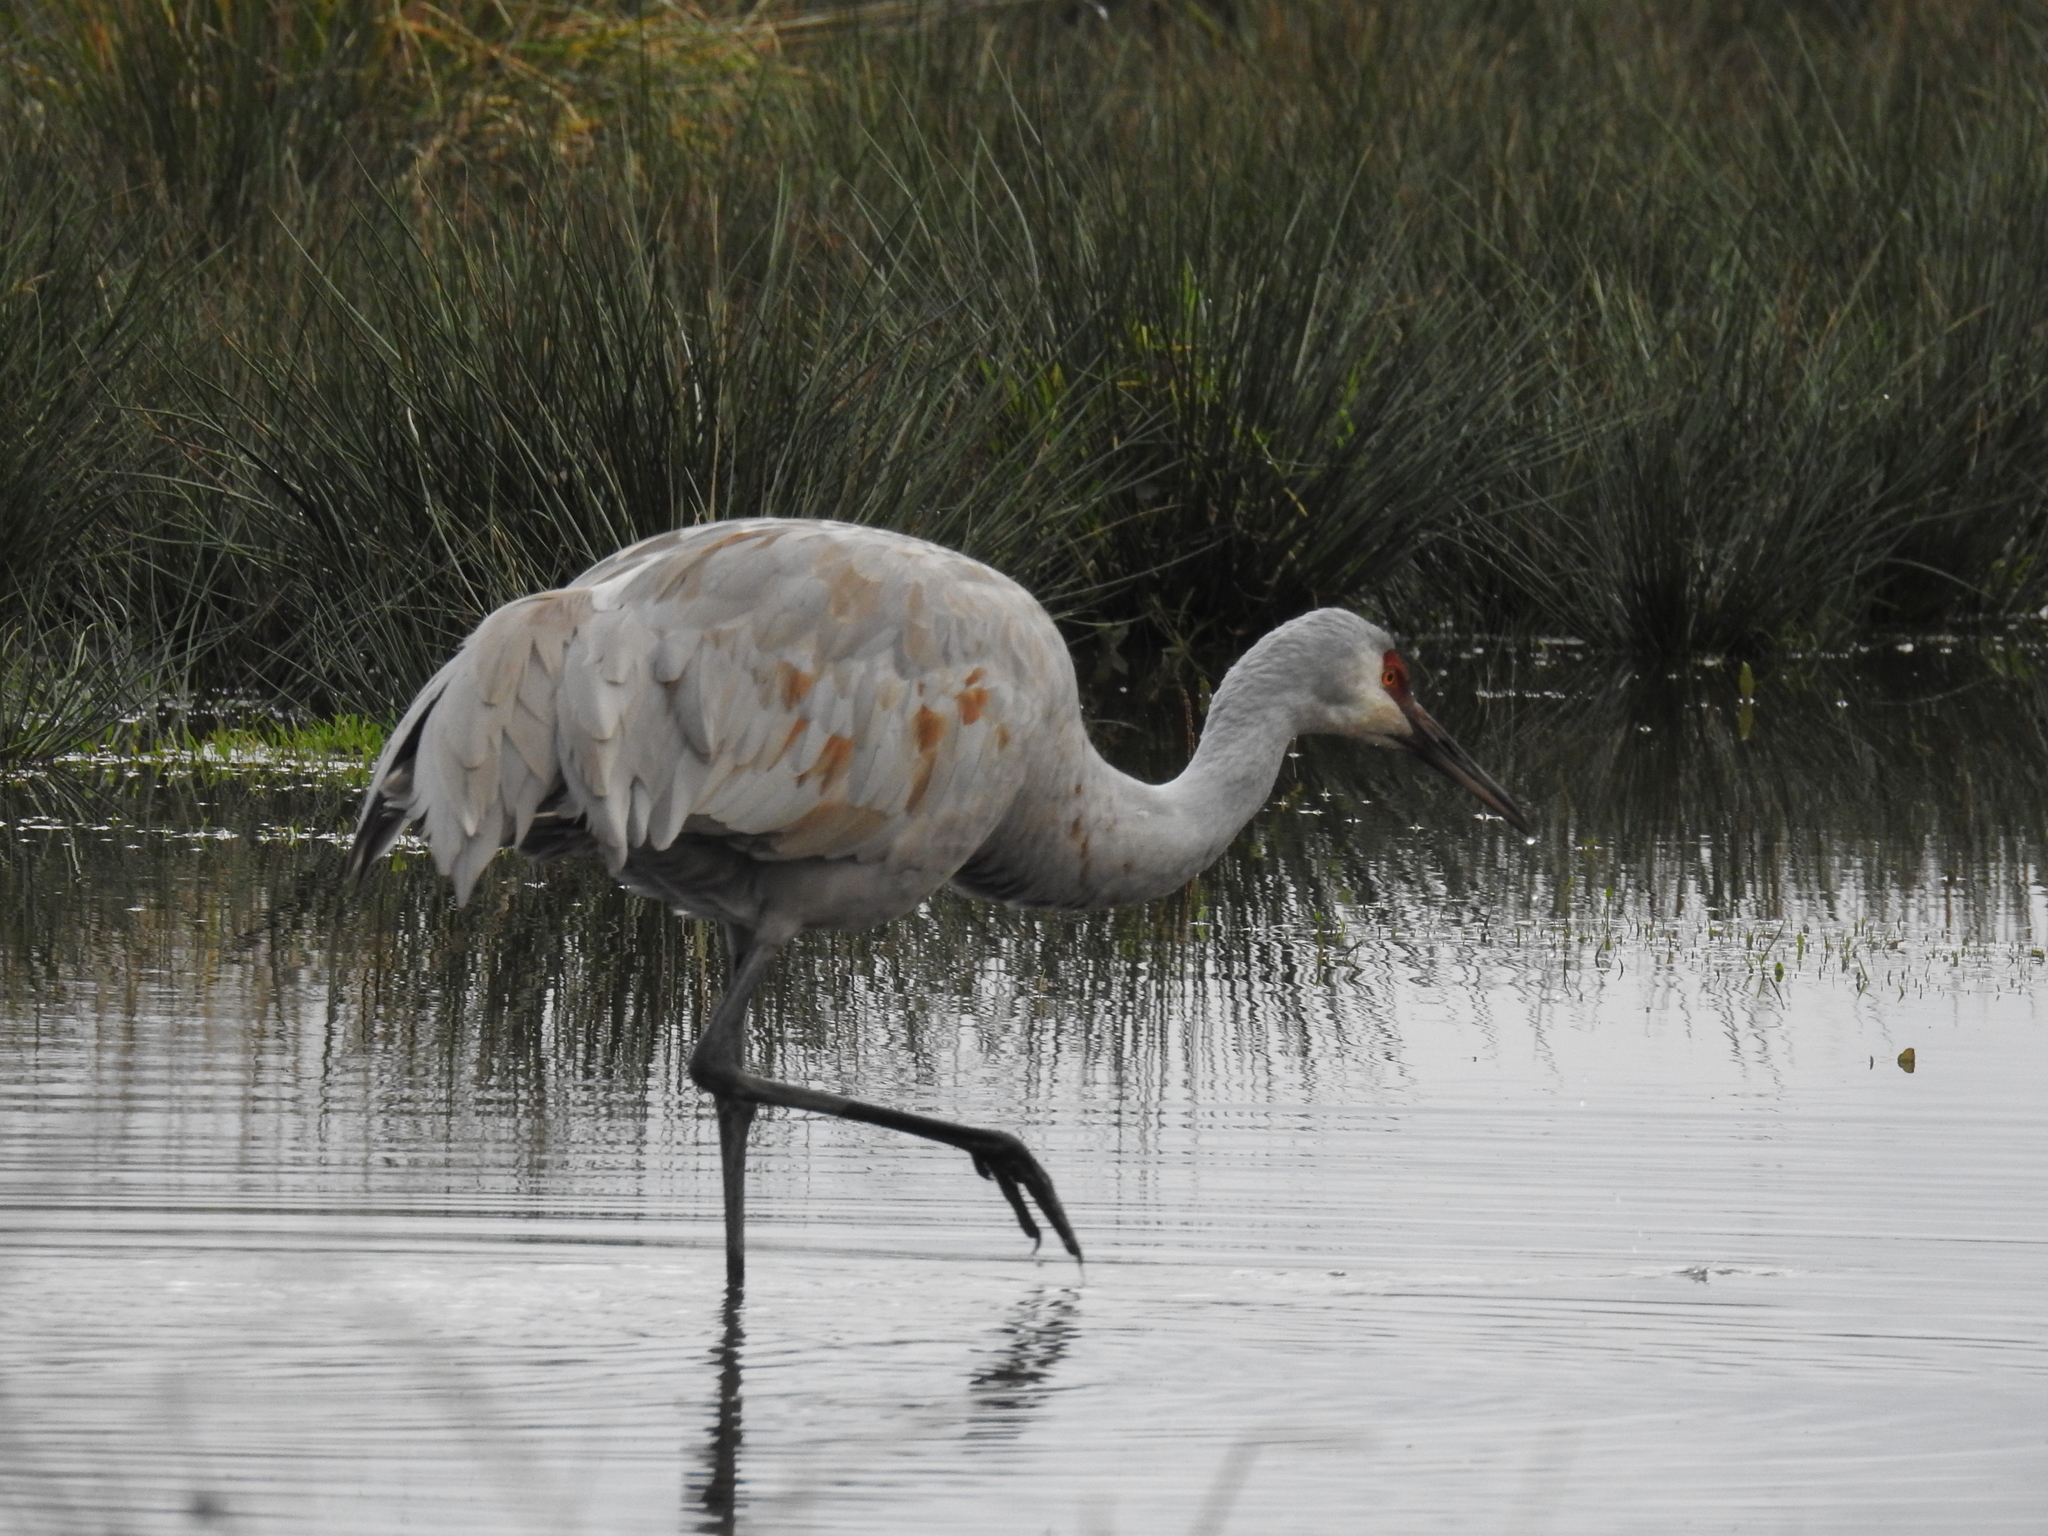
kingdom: Animalia
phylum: Chordata
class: Aves
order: Gruiformes
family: Gruidae
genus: Grus
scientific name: Grus canadensis
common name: Sandhill crane
